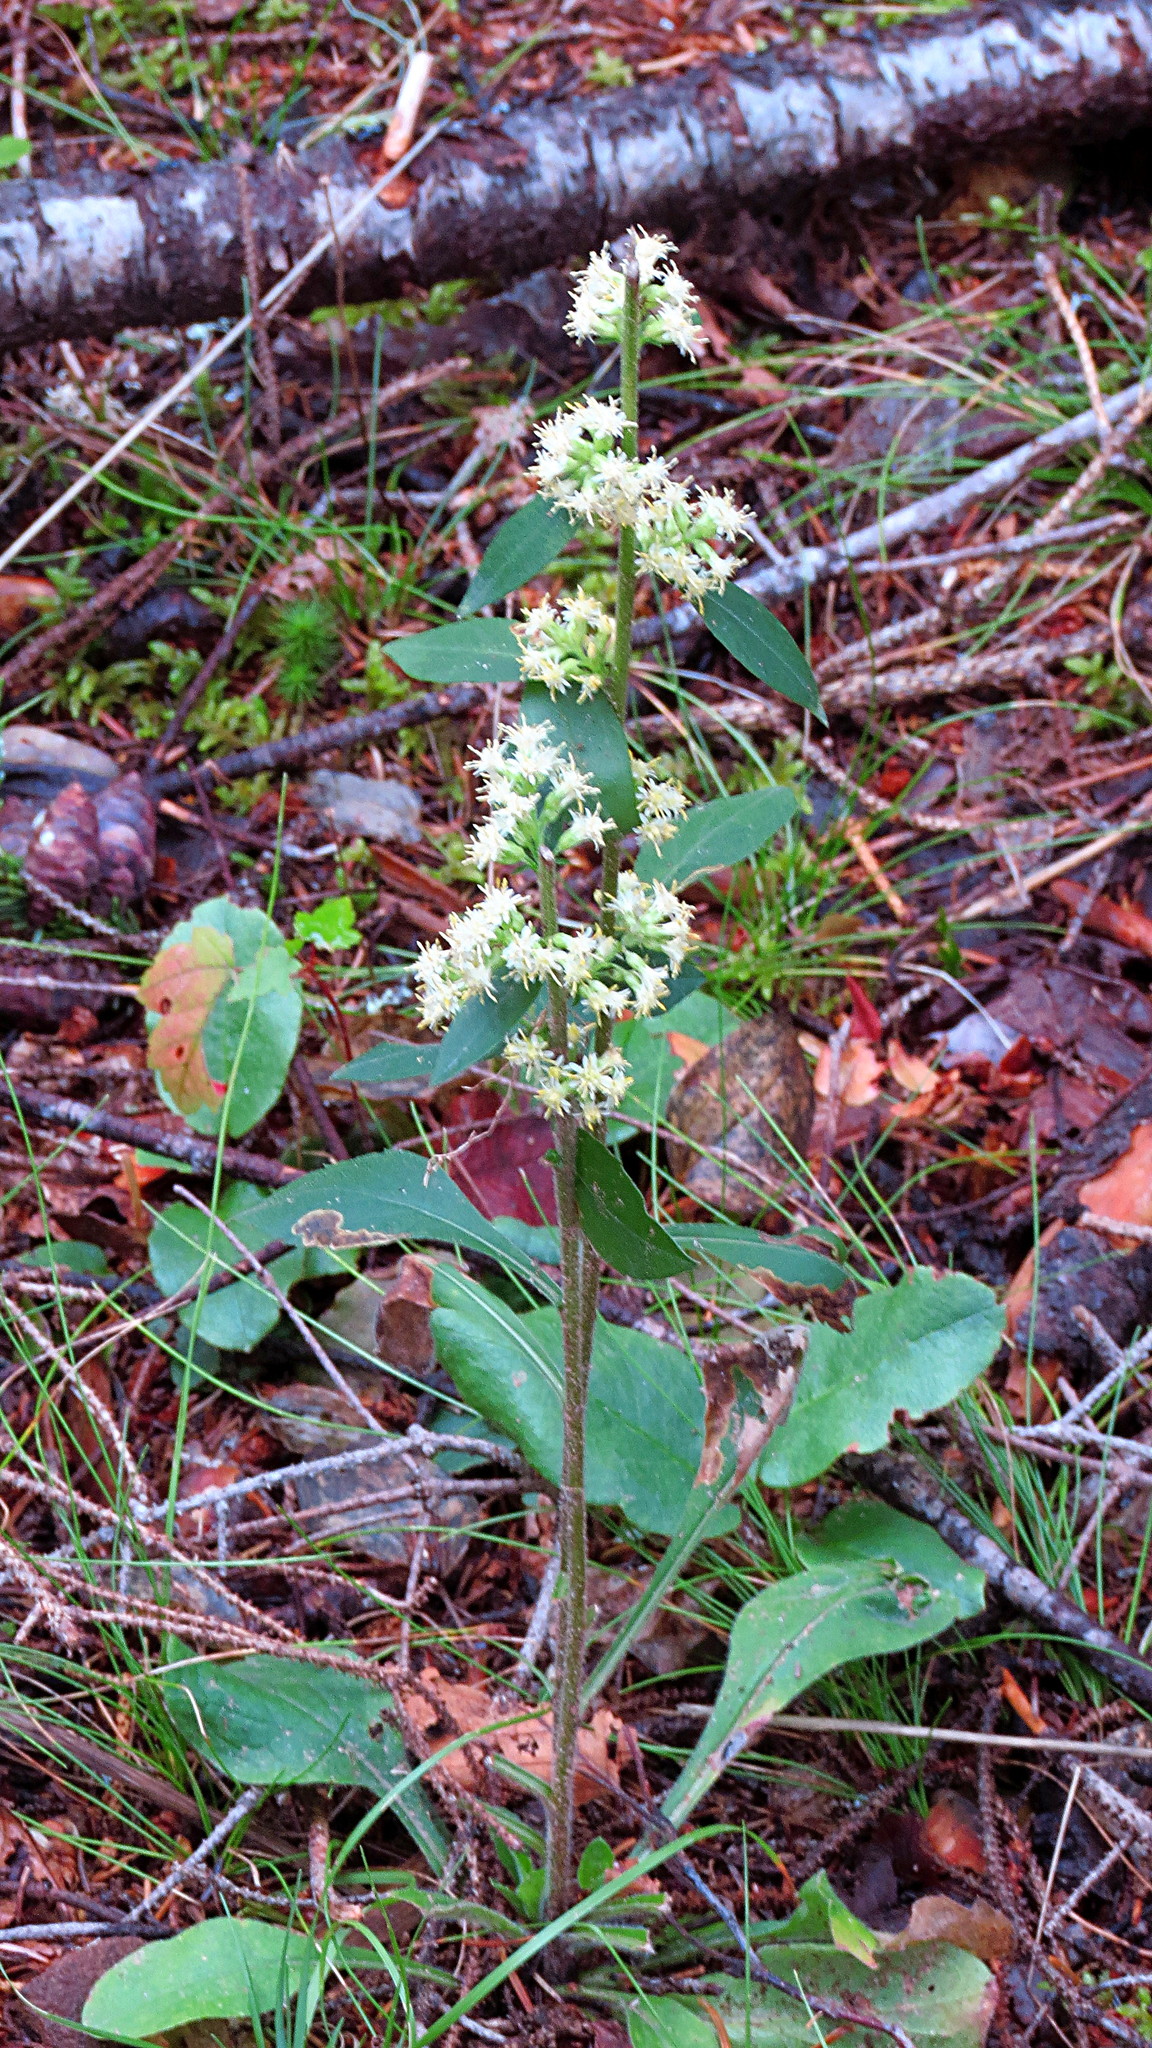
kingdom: Plantae
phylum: Tracheophyta
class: Magnoliopsida
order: Asterales
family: Asteraceae
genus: Solidago
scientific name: Solidago bicolor
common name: Silverrod
